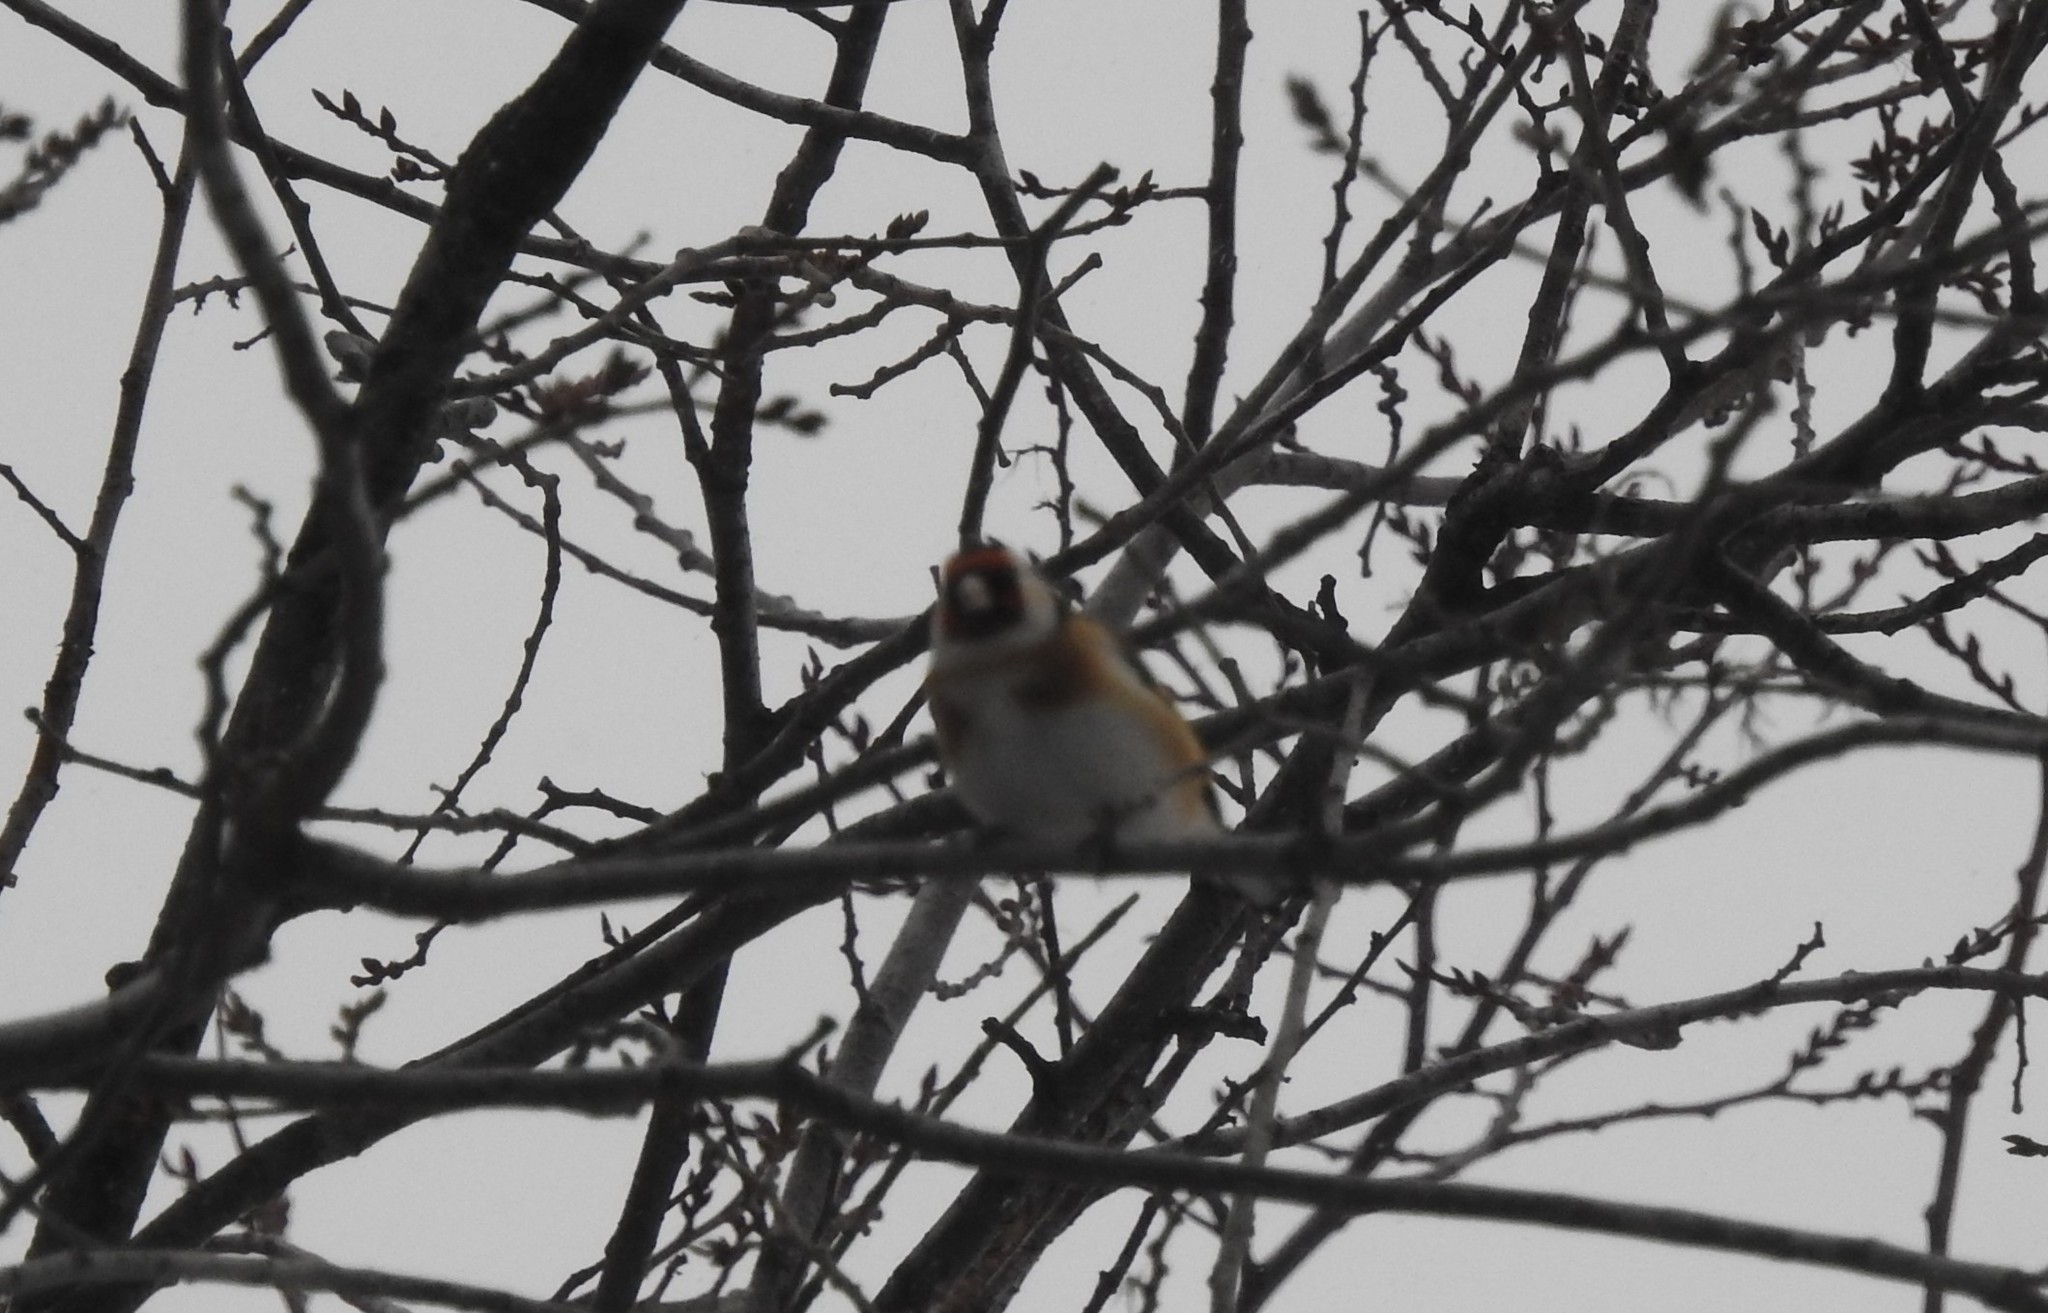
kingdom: Animalia
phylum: Chordata
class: Aves
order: Passeriformes
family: Fringillidae
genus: Carduelis
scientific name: Carduelis carduelis
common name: European goldfinch
